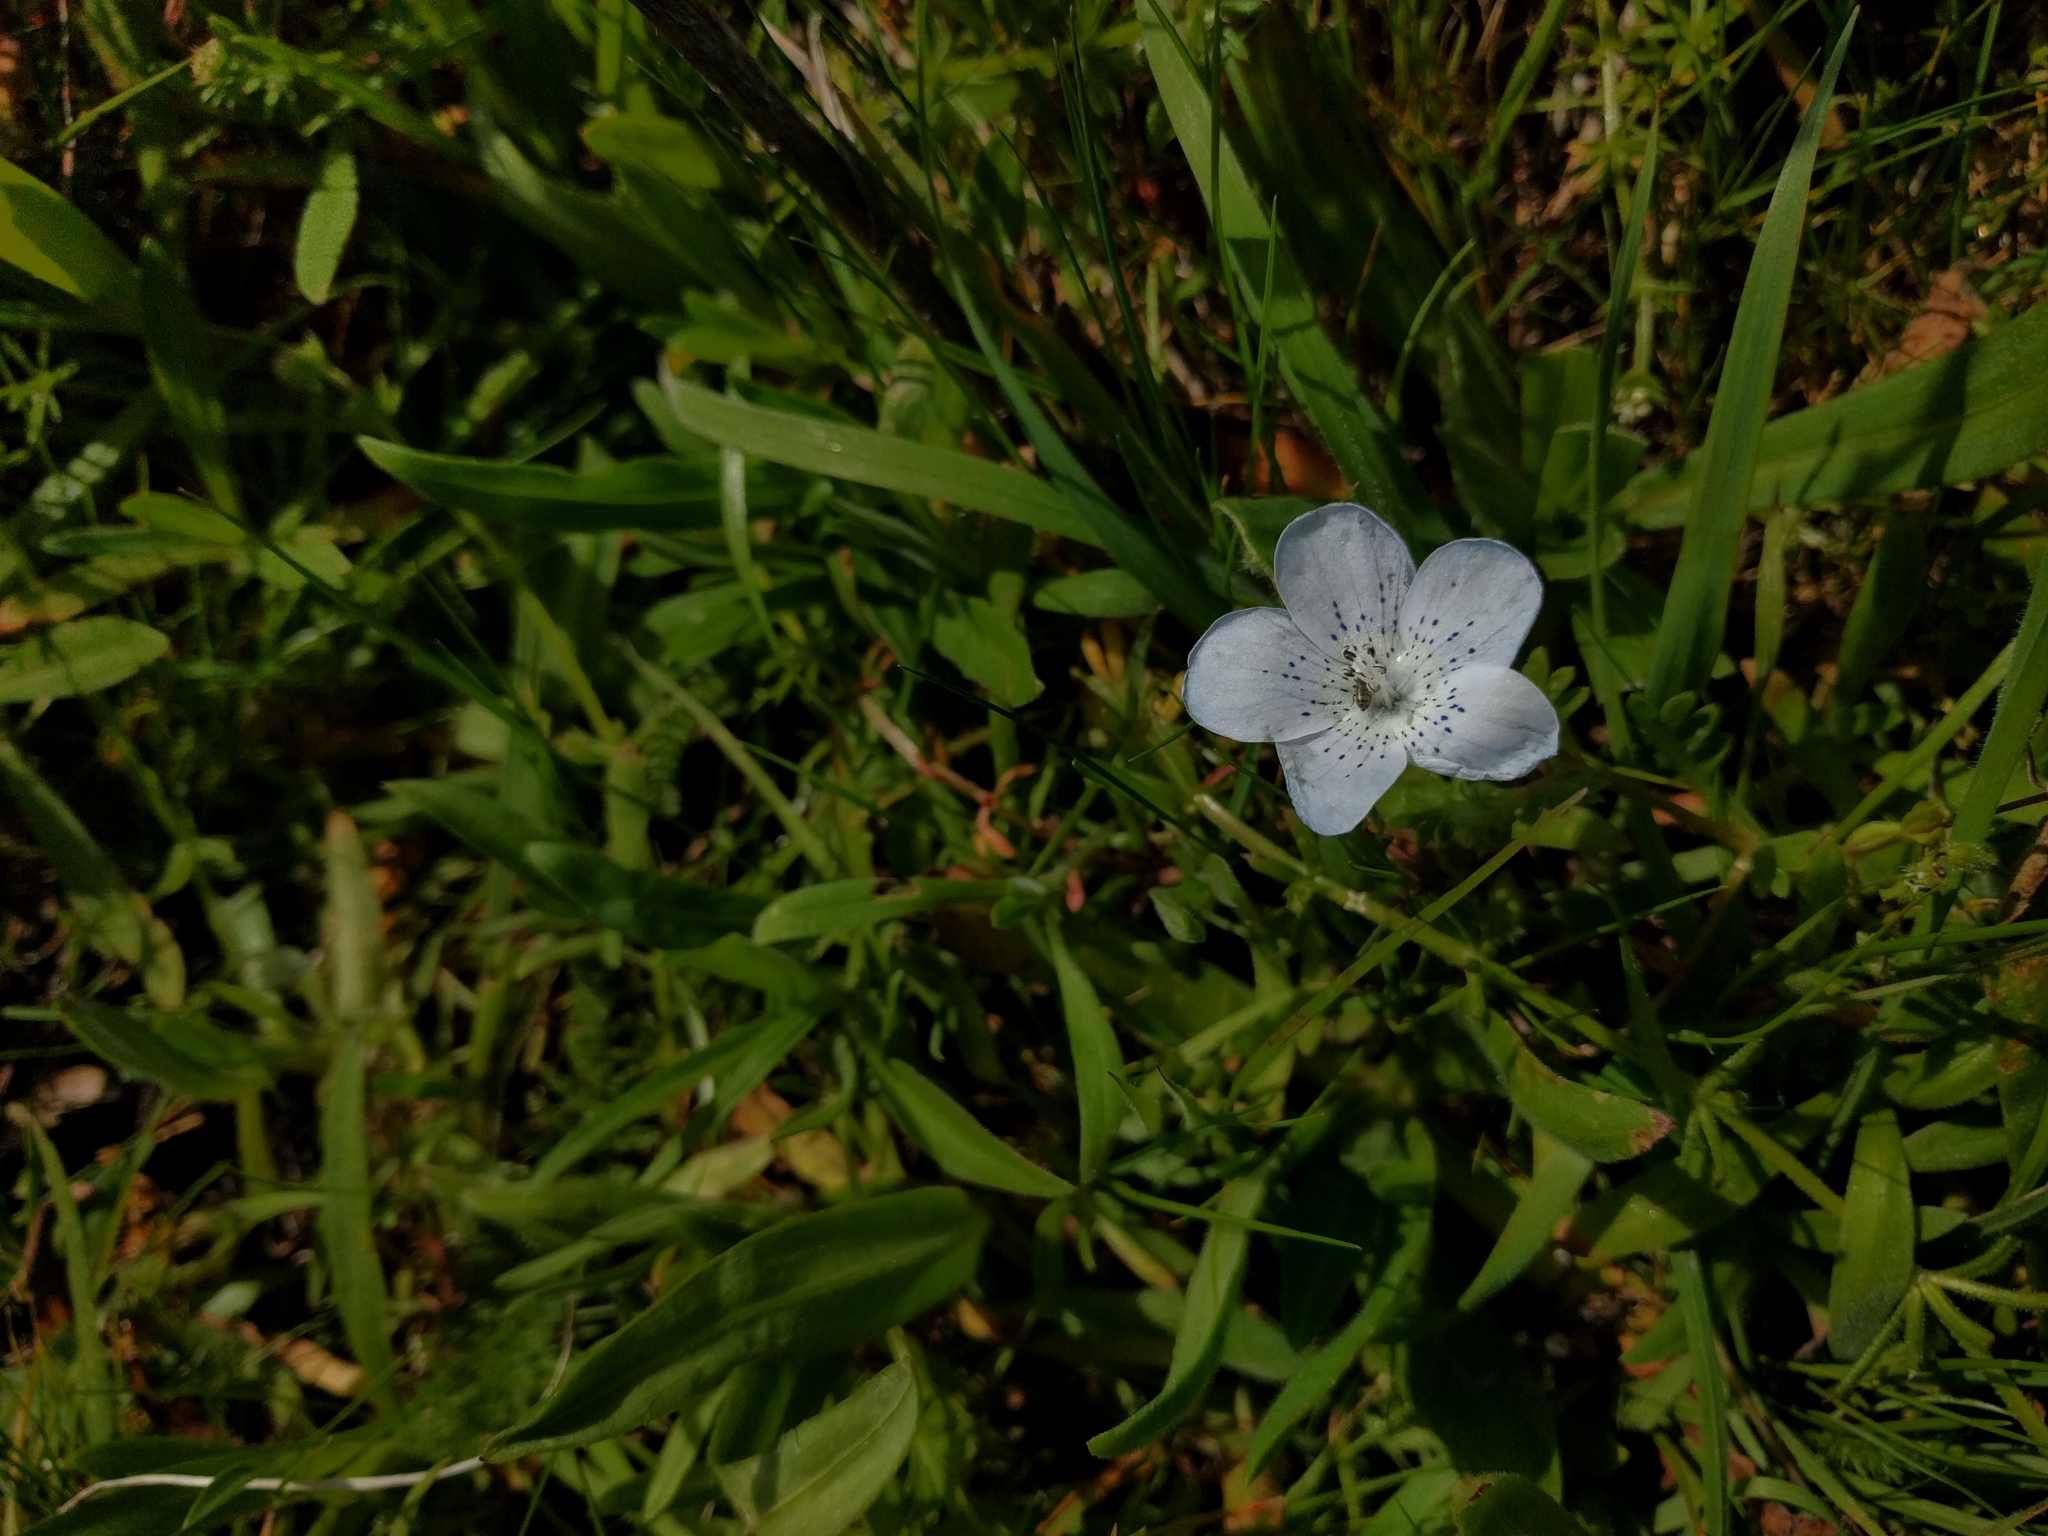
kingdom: Plantae
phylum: Tracheophyta
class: Magnoliopsida
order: Boraginales
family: Hydrophyllaceae
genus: Nemophila
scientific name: Nemophila menziesii
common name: Baby's-blue-eyes
